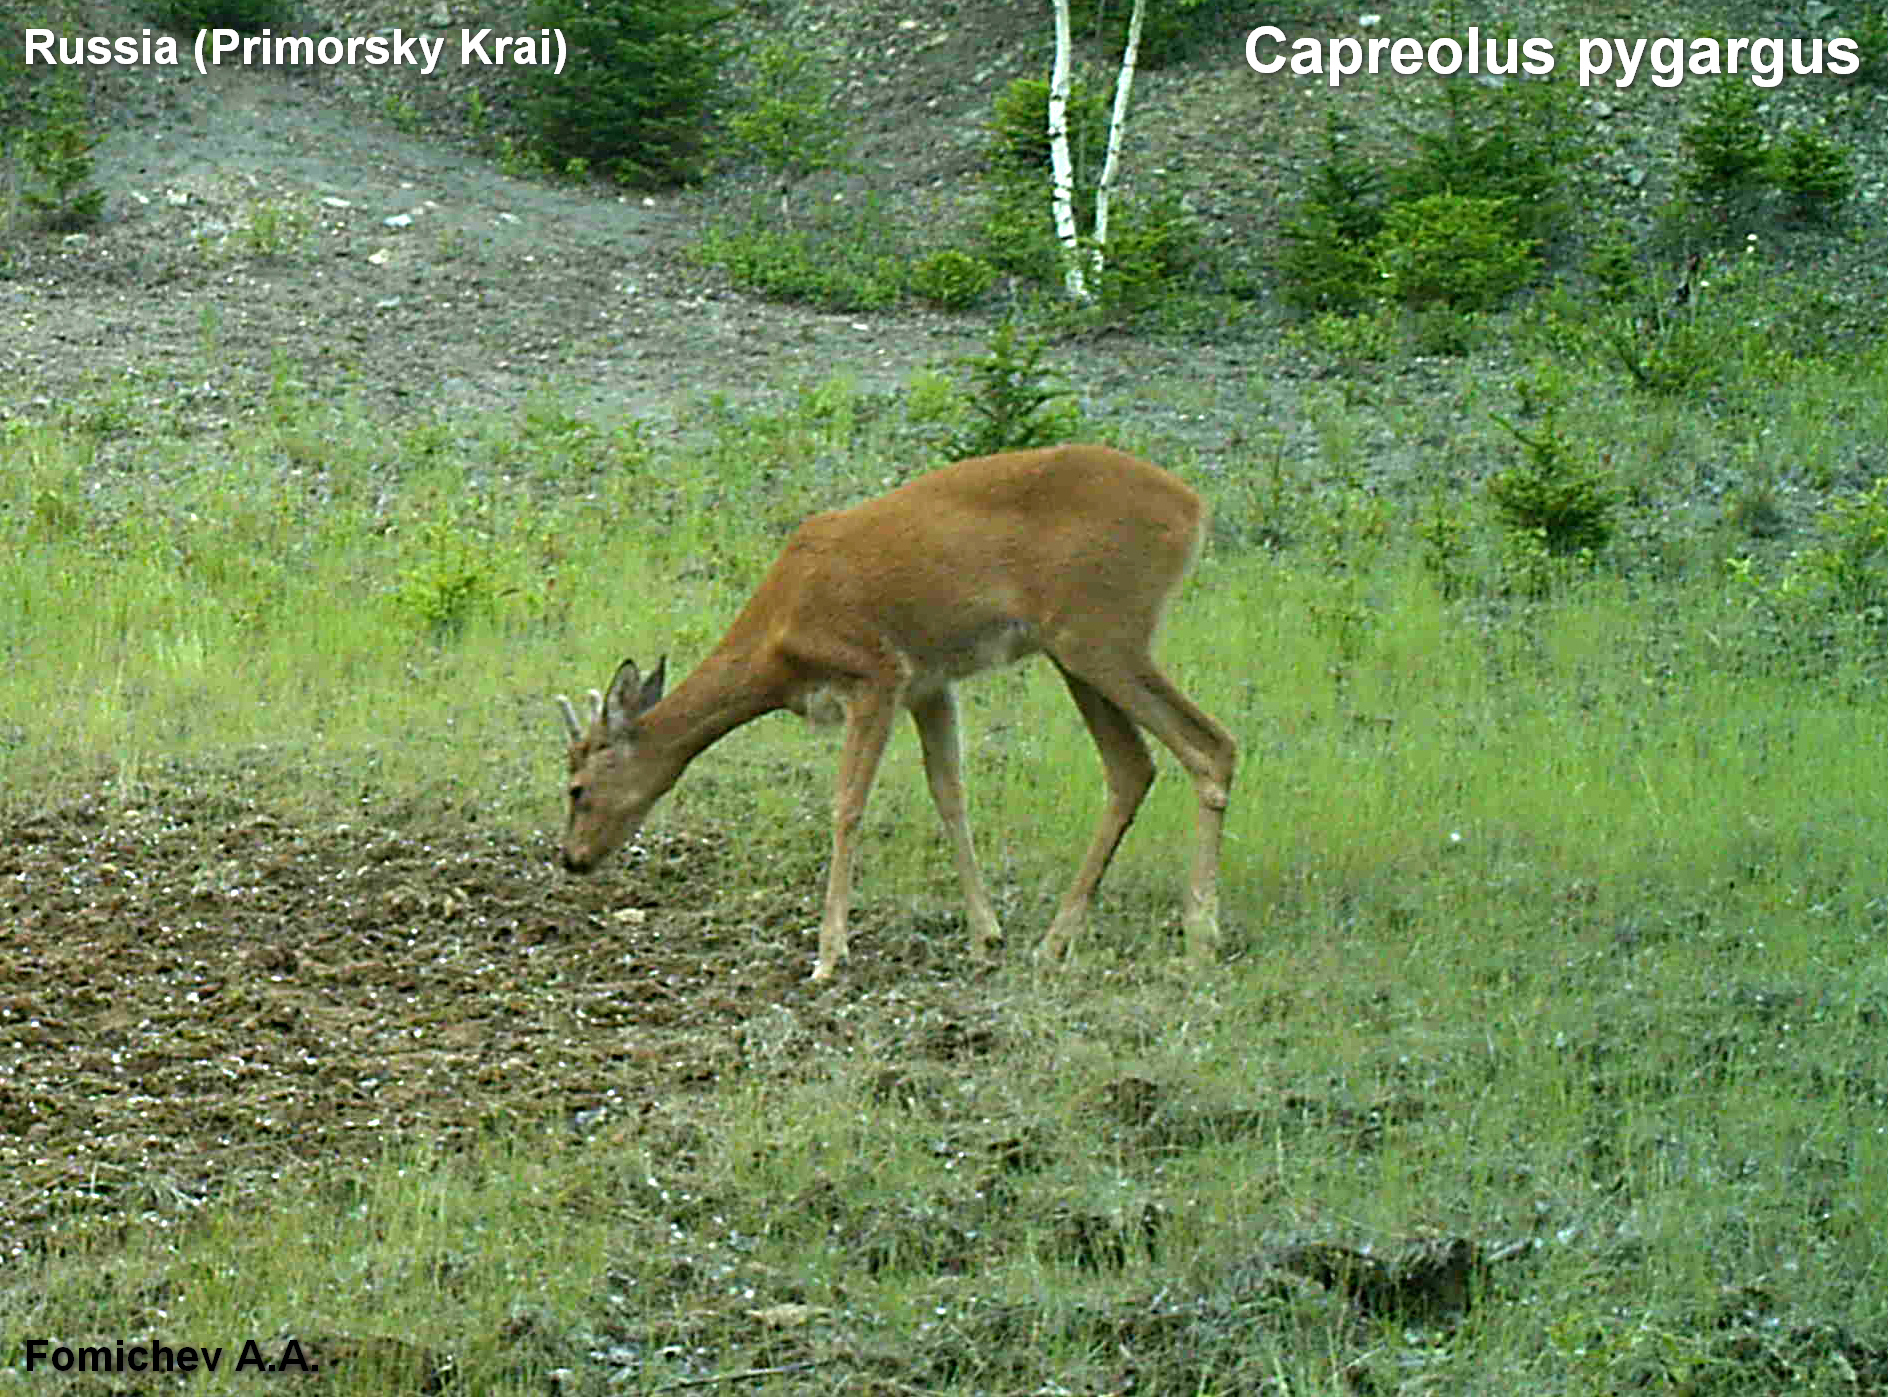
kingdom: Animalia
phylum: Chordata
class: Mammalia
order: Artiodactyla
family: Cervidae
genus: Capreolus
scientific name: Capreolus pygargus
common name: Siberian roe
